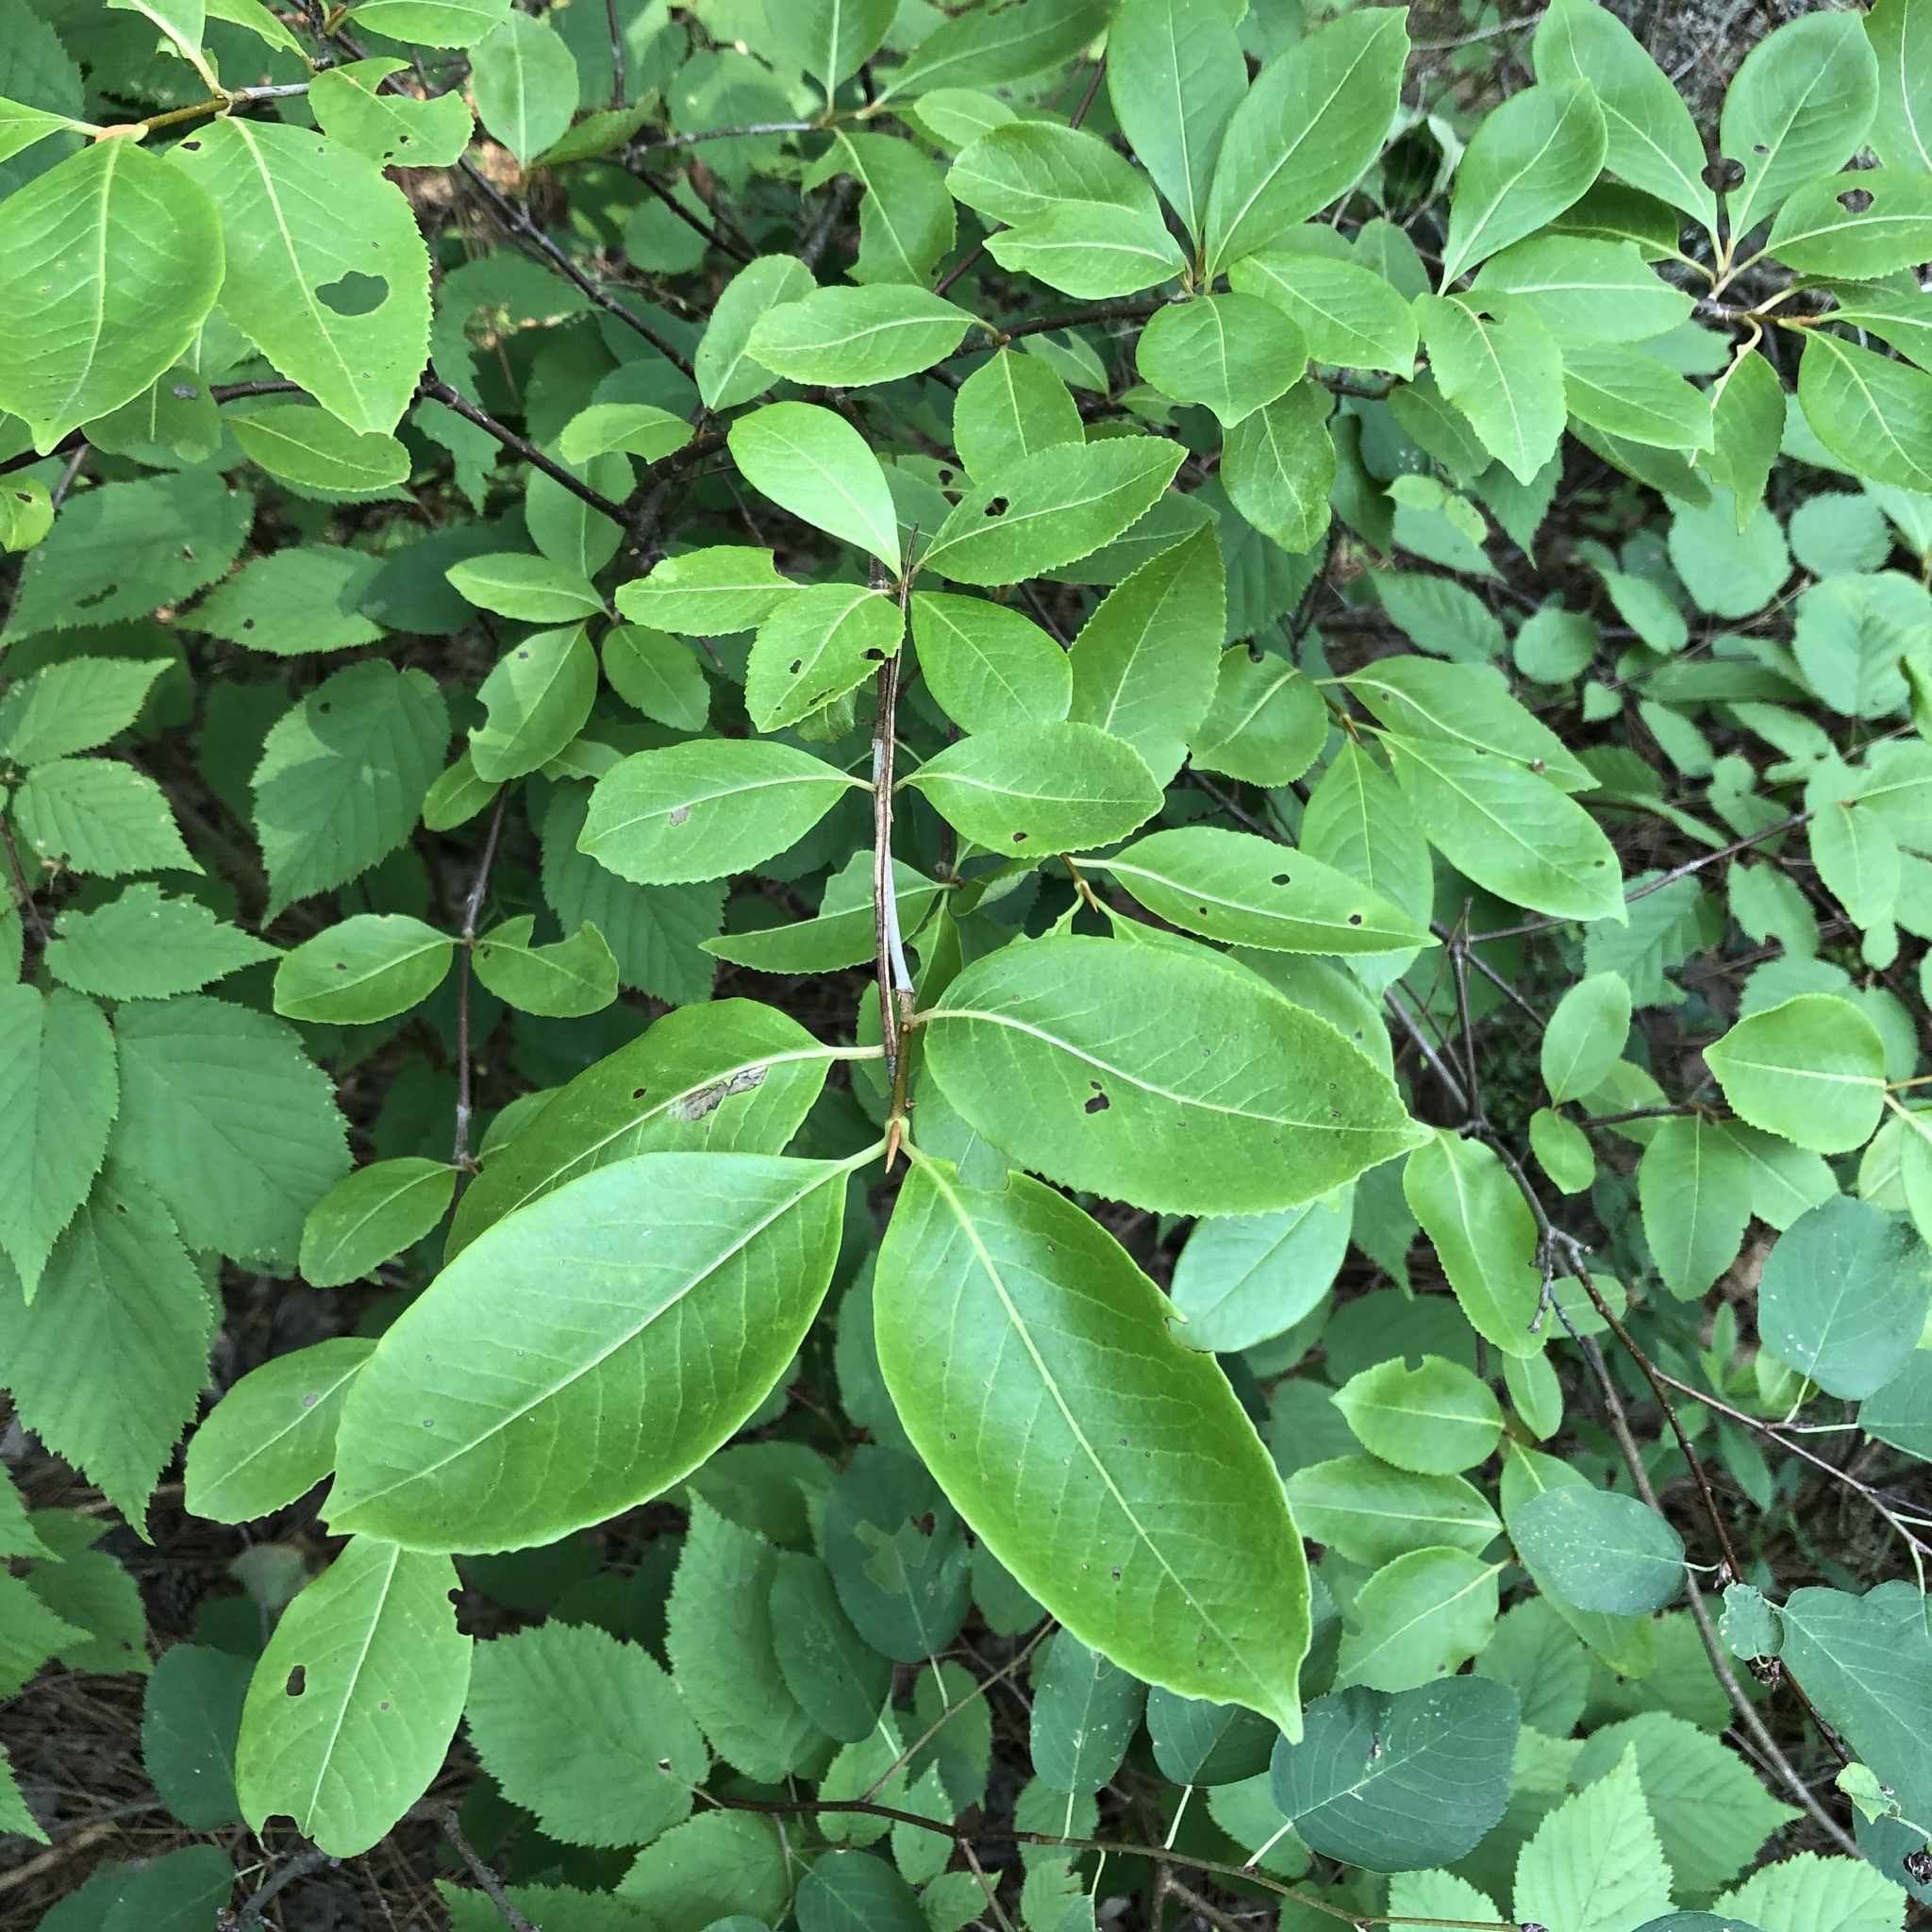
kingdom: Plantae
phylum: Tracheophyta
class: Magnoliopsida
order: Dipsacales
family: Viburnaceae
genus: Viburnum
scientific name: Viburnum cassinoides
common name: Swamp haw
